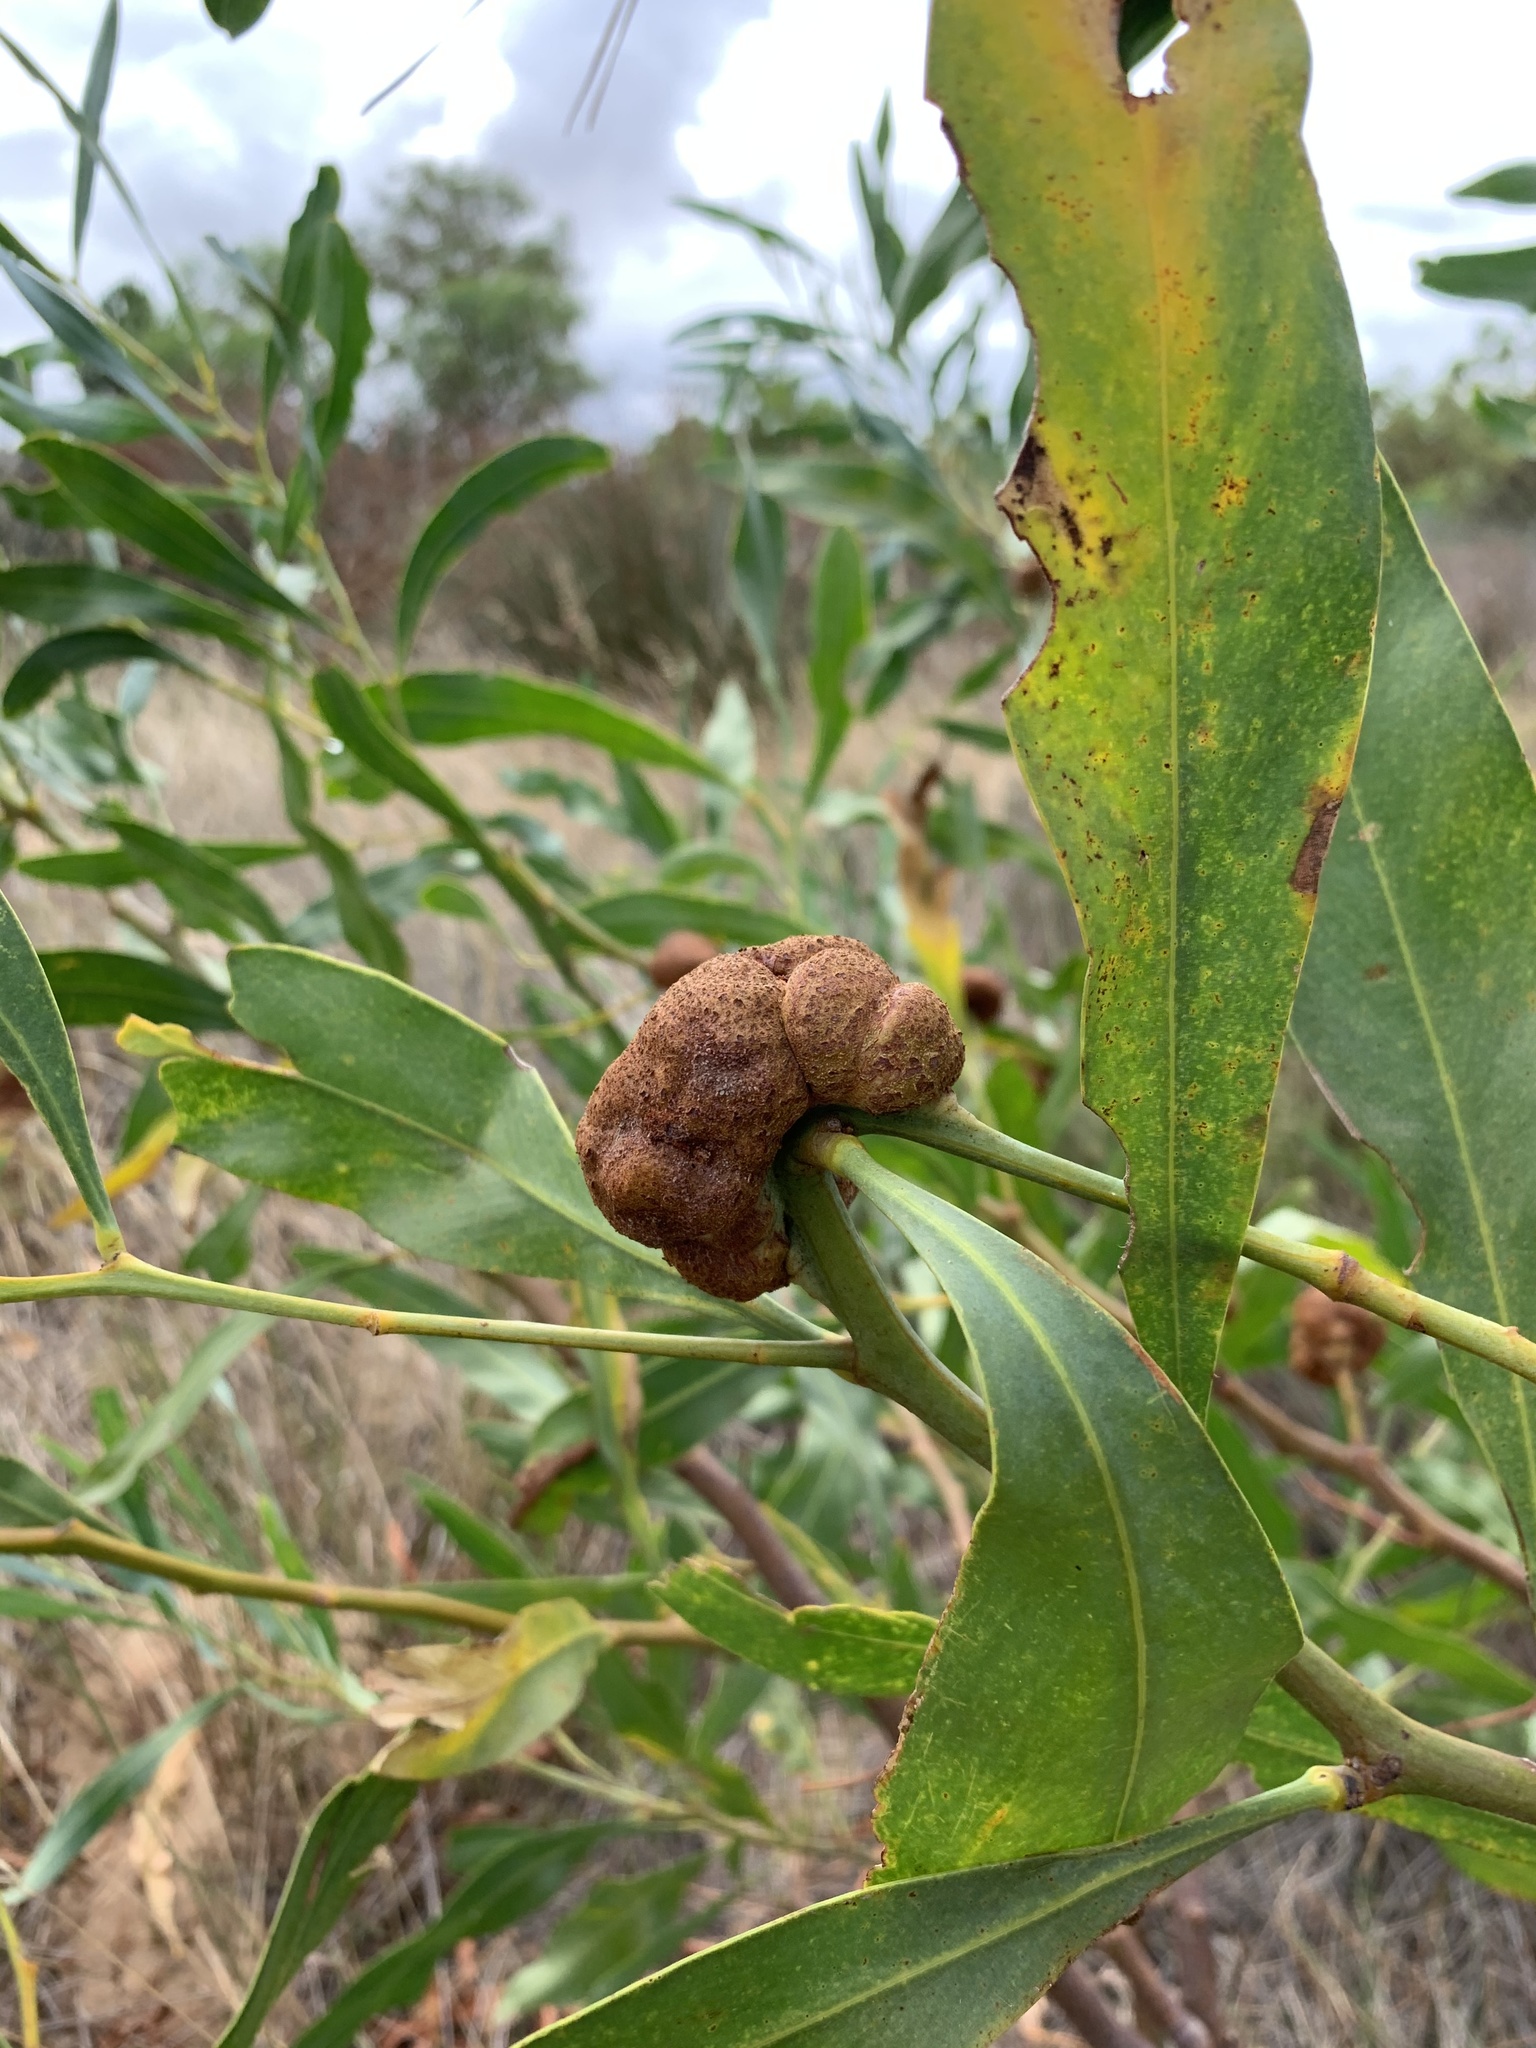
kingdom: Fungi
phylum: Basidiomycota
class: Pucciniomycetes
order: Pucciniales
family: Uromycladiaceae
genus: Uromycladium
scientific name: Uromycladium morrisii
